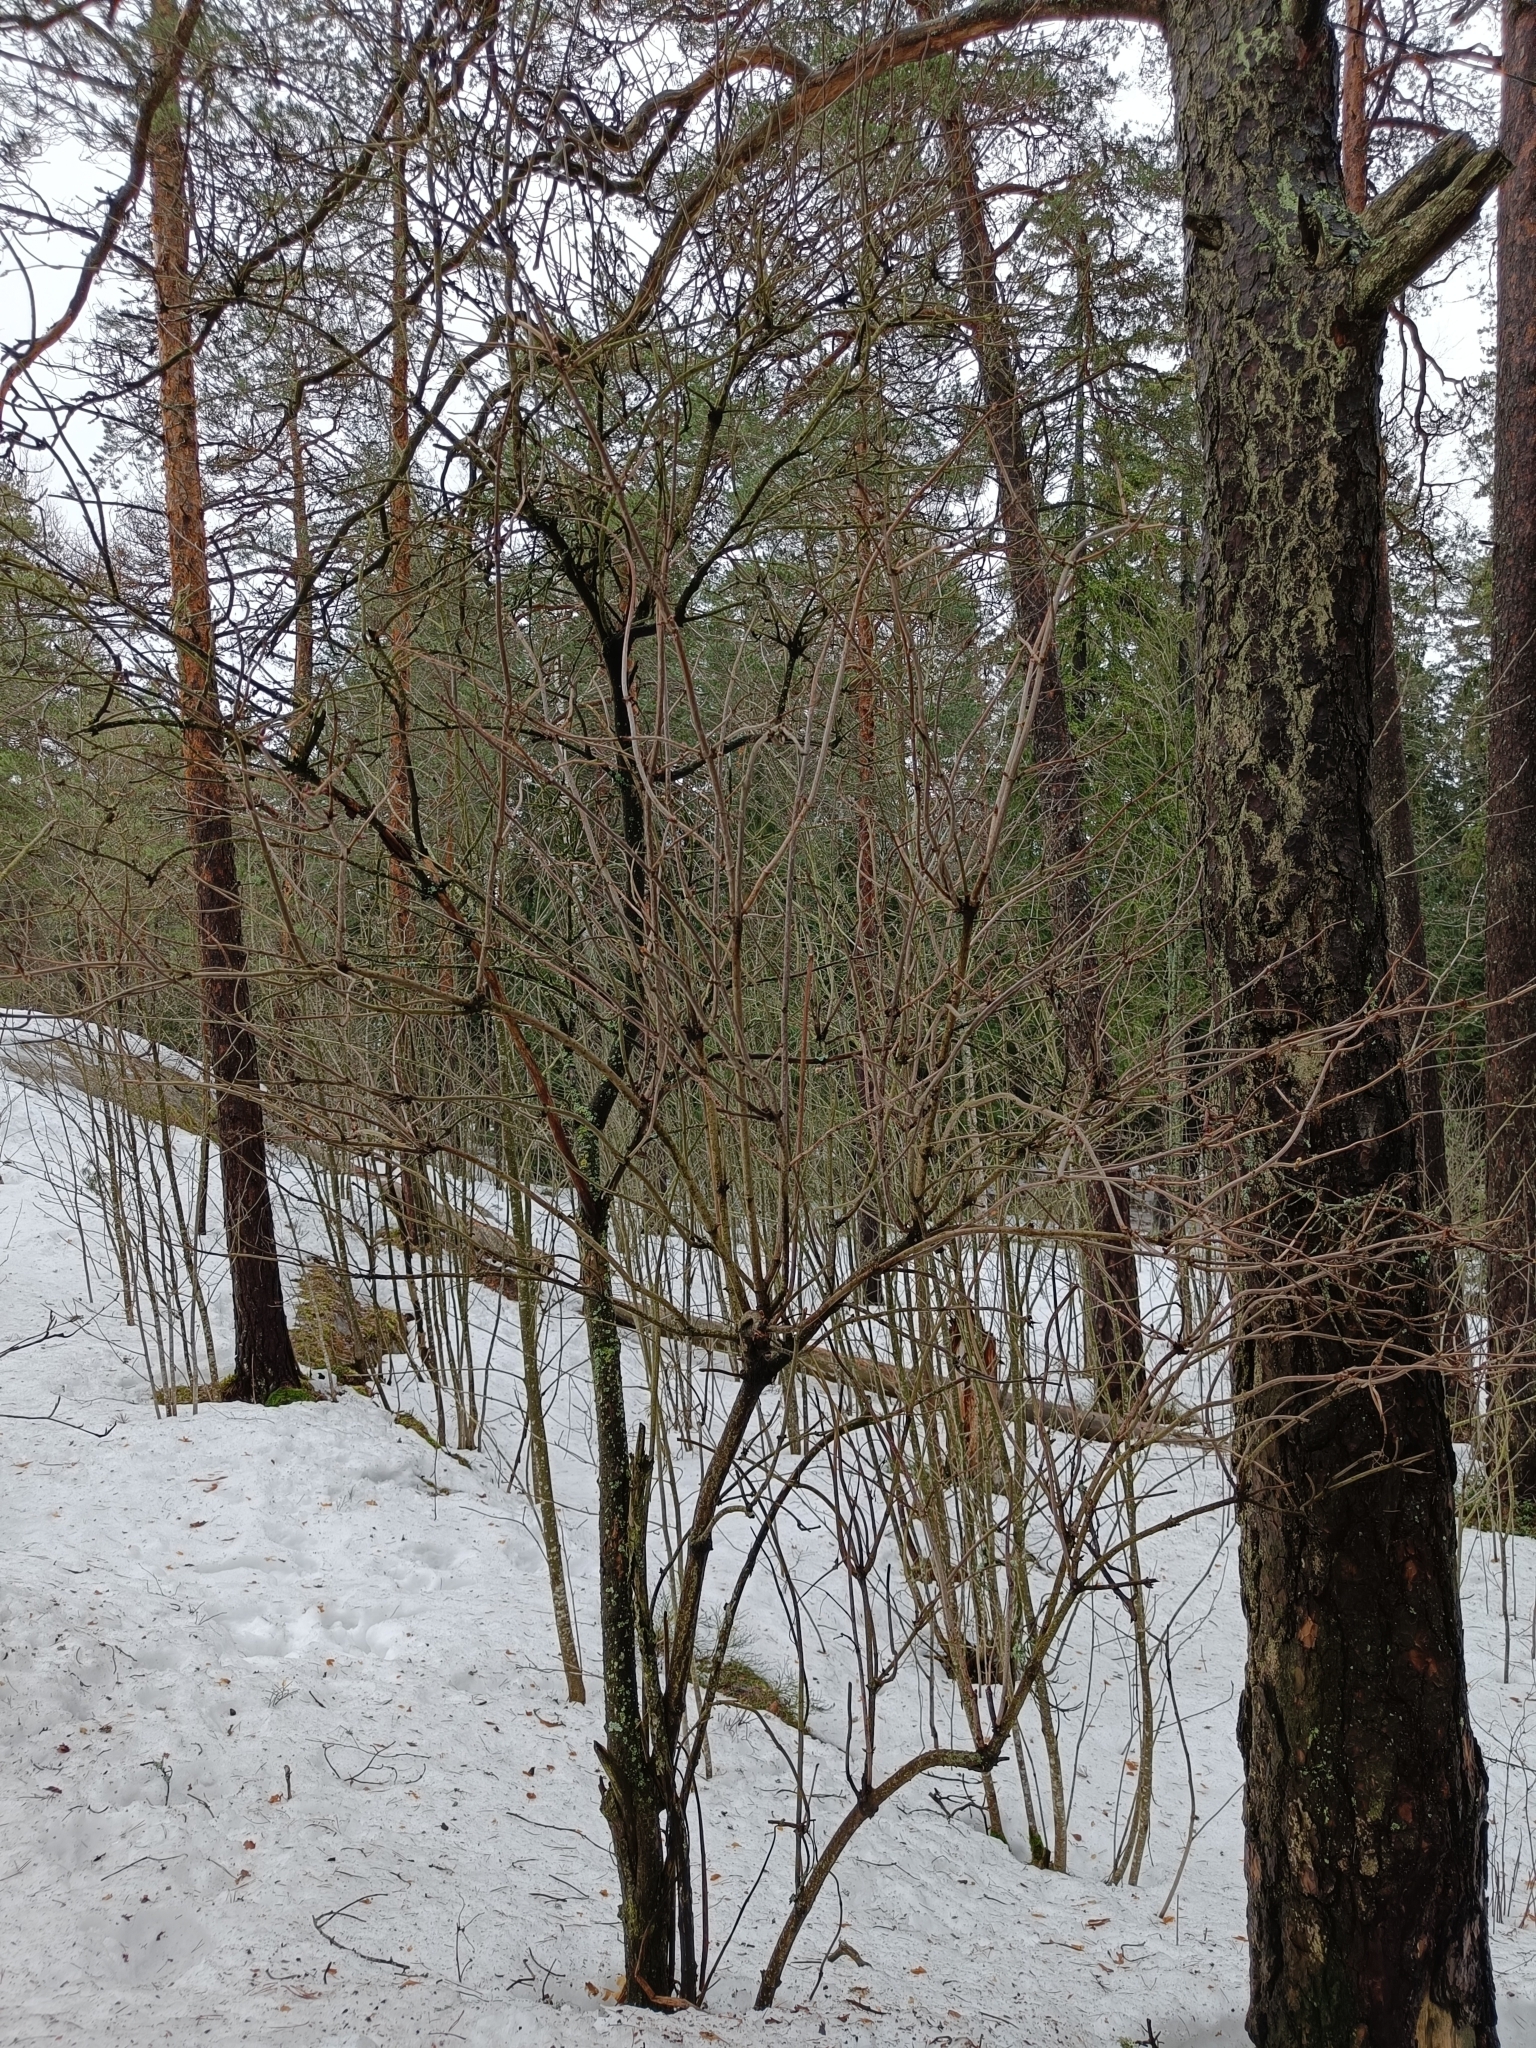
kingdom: Plantae
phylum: Tracheophyta
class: Magnoliopsida
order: Dipsacales
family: Viburnaceae
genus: Sambucus
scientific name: Sambucus racemosa
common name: Red-berried elder
